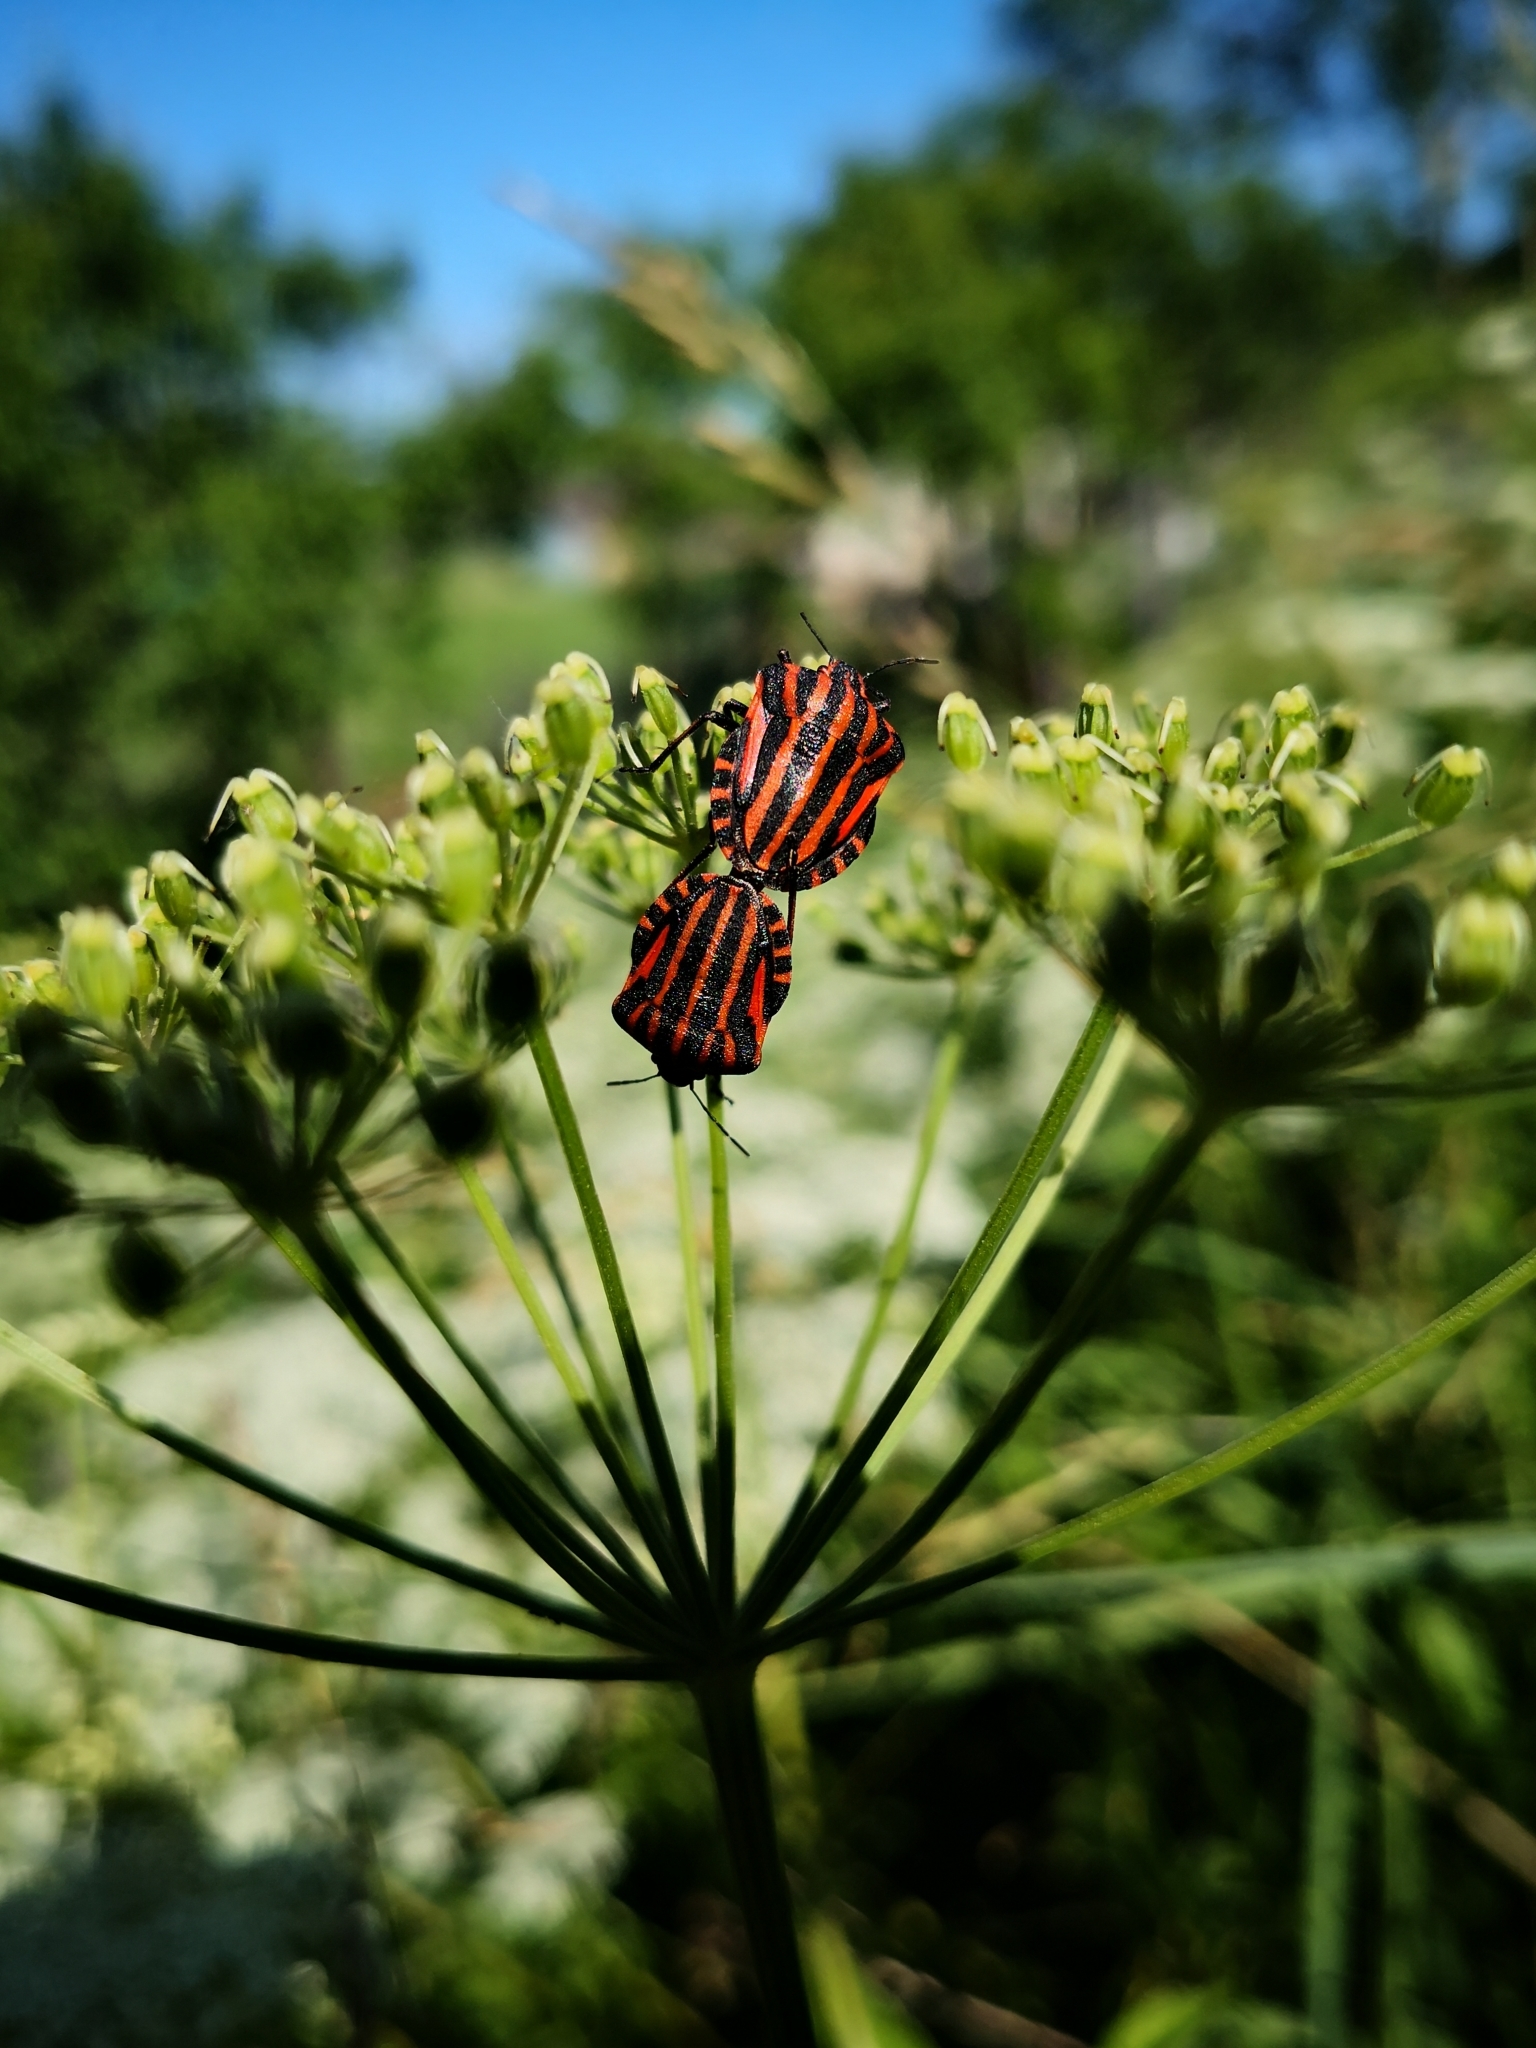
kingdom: Animalia
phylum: Arthropoda
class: Insecta
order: Hemiptera
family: Pentatomidae
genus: Graphosoma
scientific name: Graphosoma italicum
